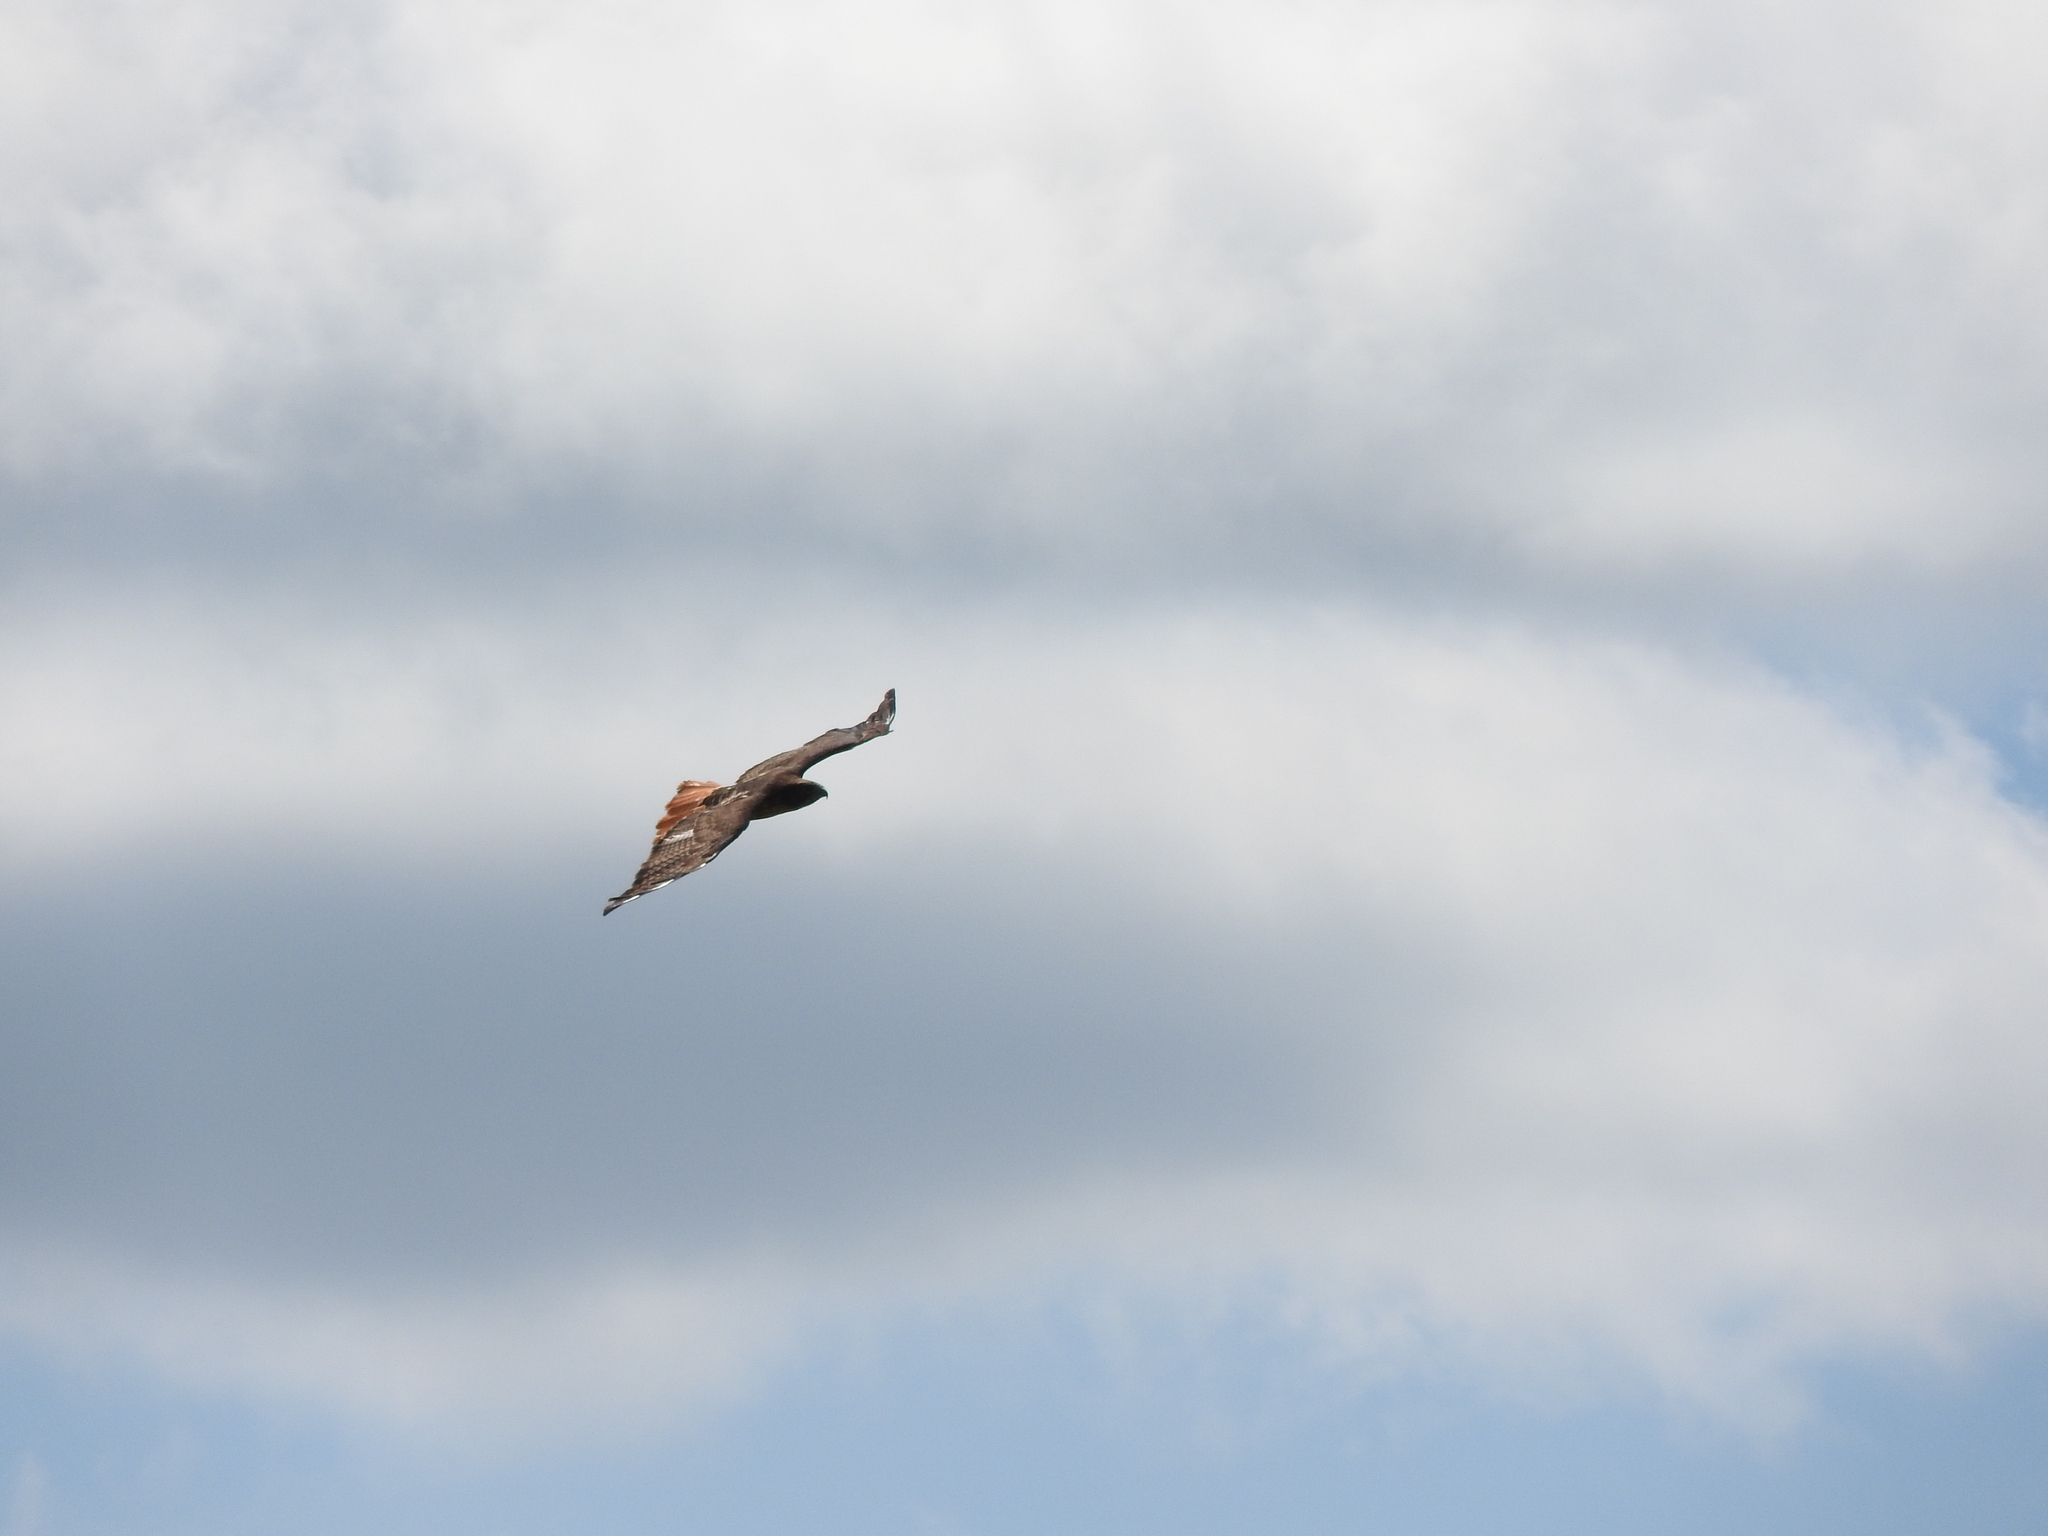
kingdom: Animalia
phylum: Chordata
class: Aves
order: Accipitriformes
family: Accipitridae
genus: Buteo
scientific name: Buteo jamaicensis
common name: Red-tailed hawk
